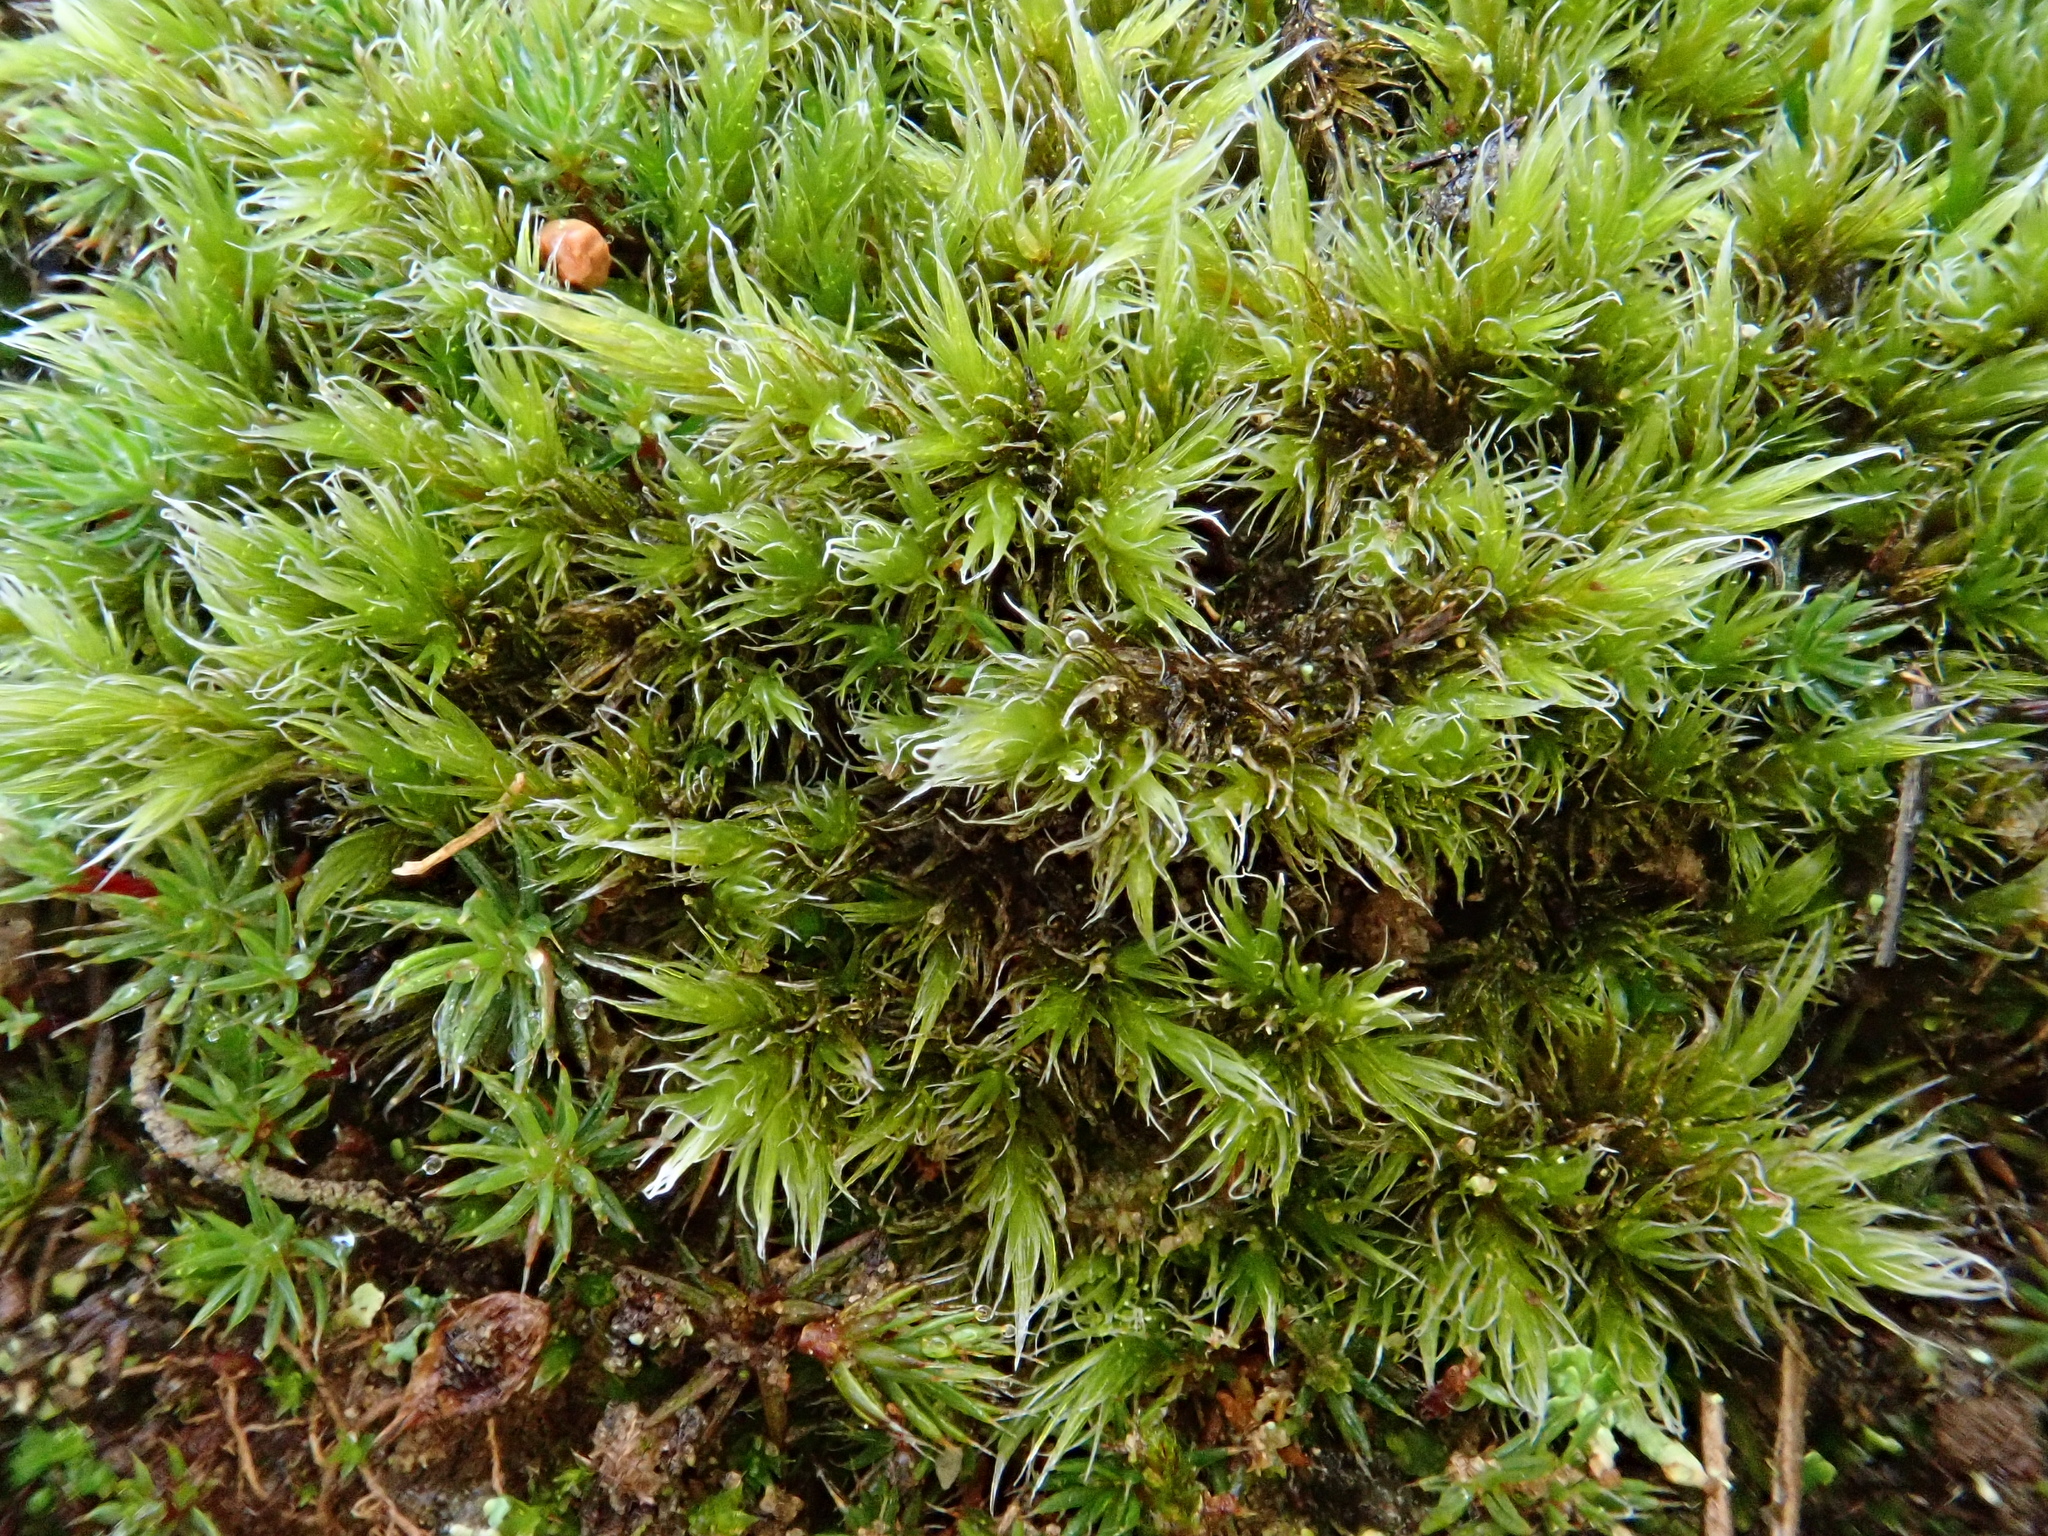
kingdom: Plantae
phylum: Bryophyta
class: Bryopsida
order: Grimmiales
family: Grimmiaceae
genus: Racomitrium
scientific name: Racomitrium lanuginosum
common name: Hoary rock moss
